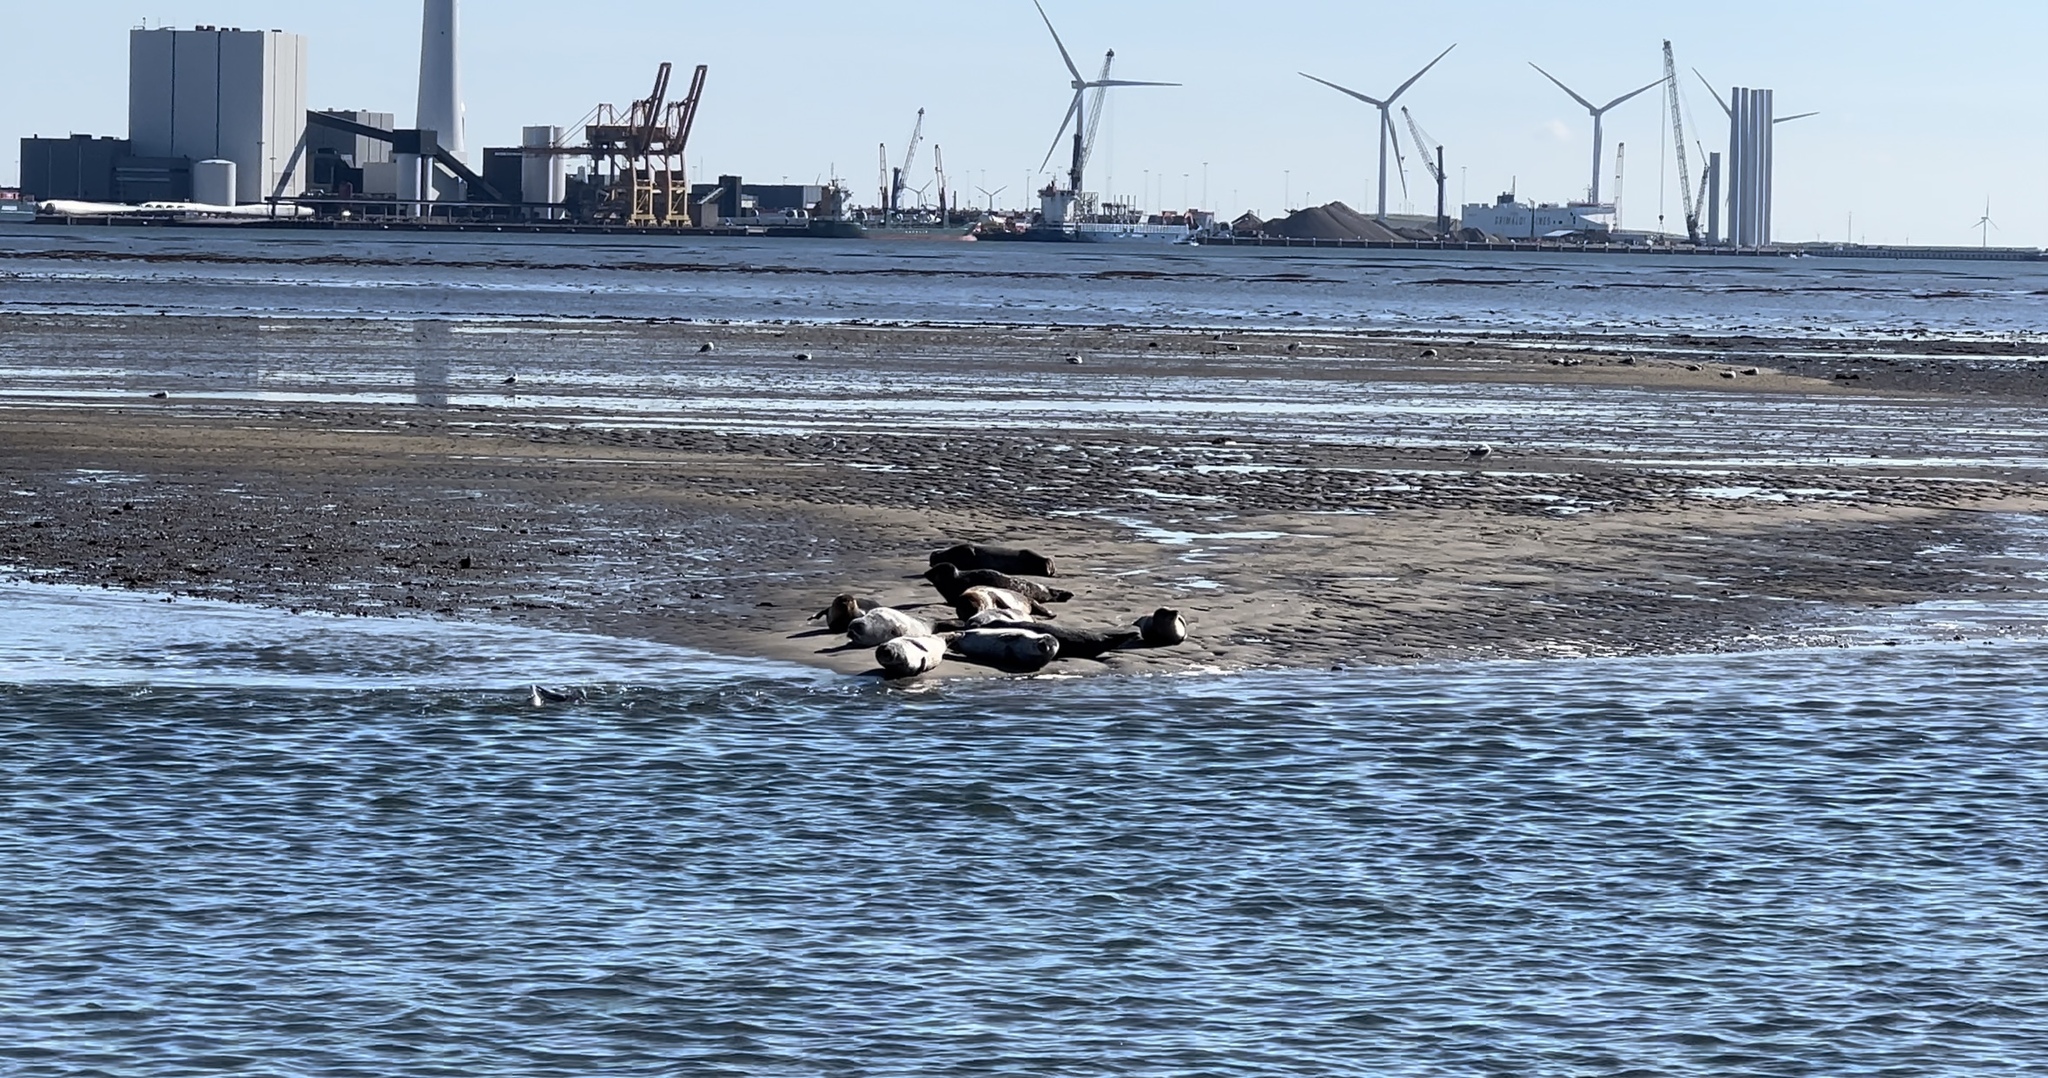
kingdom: Animalia
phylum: Chordata
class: Mammalia
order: Carnivora
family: Phocidae
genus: Phoca
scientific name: Phoca vitulina
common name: Harbor seal
